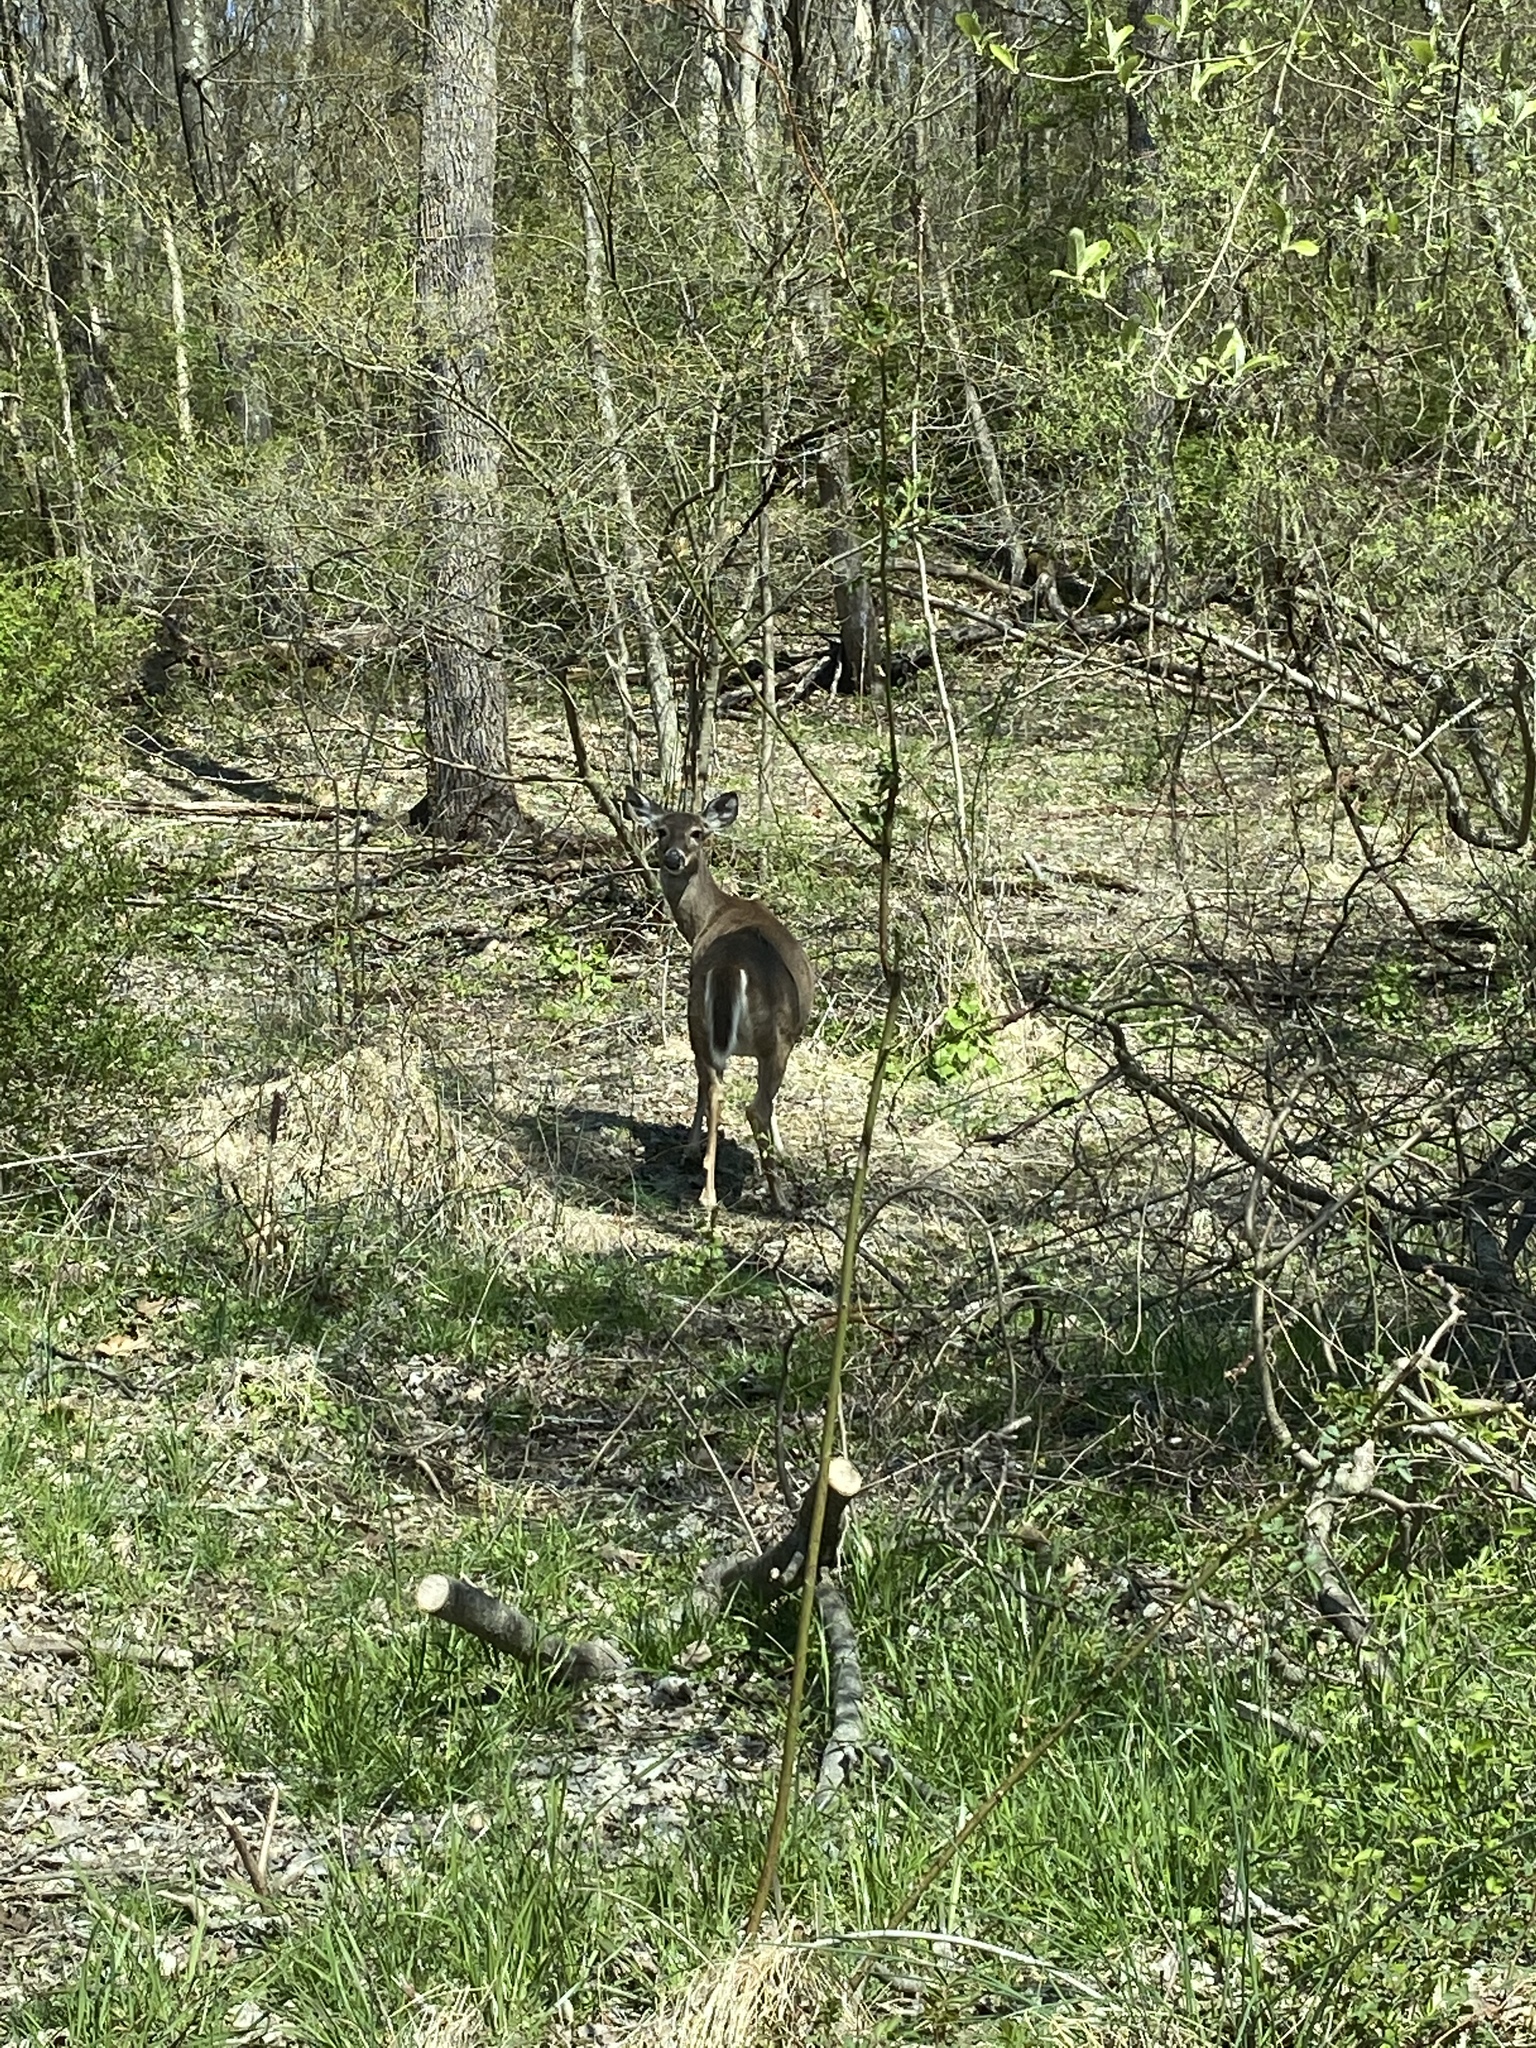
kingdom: Animalia
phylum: Chordata
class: Mammalia
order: Artiodactyla
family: Cervidae
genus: Odocoileus
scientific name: Odocoileus virginianus
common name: White-tailed deer
